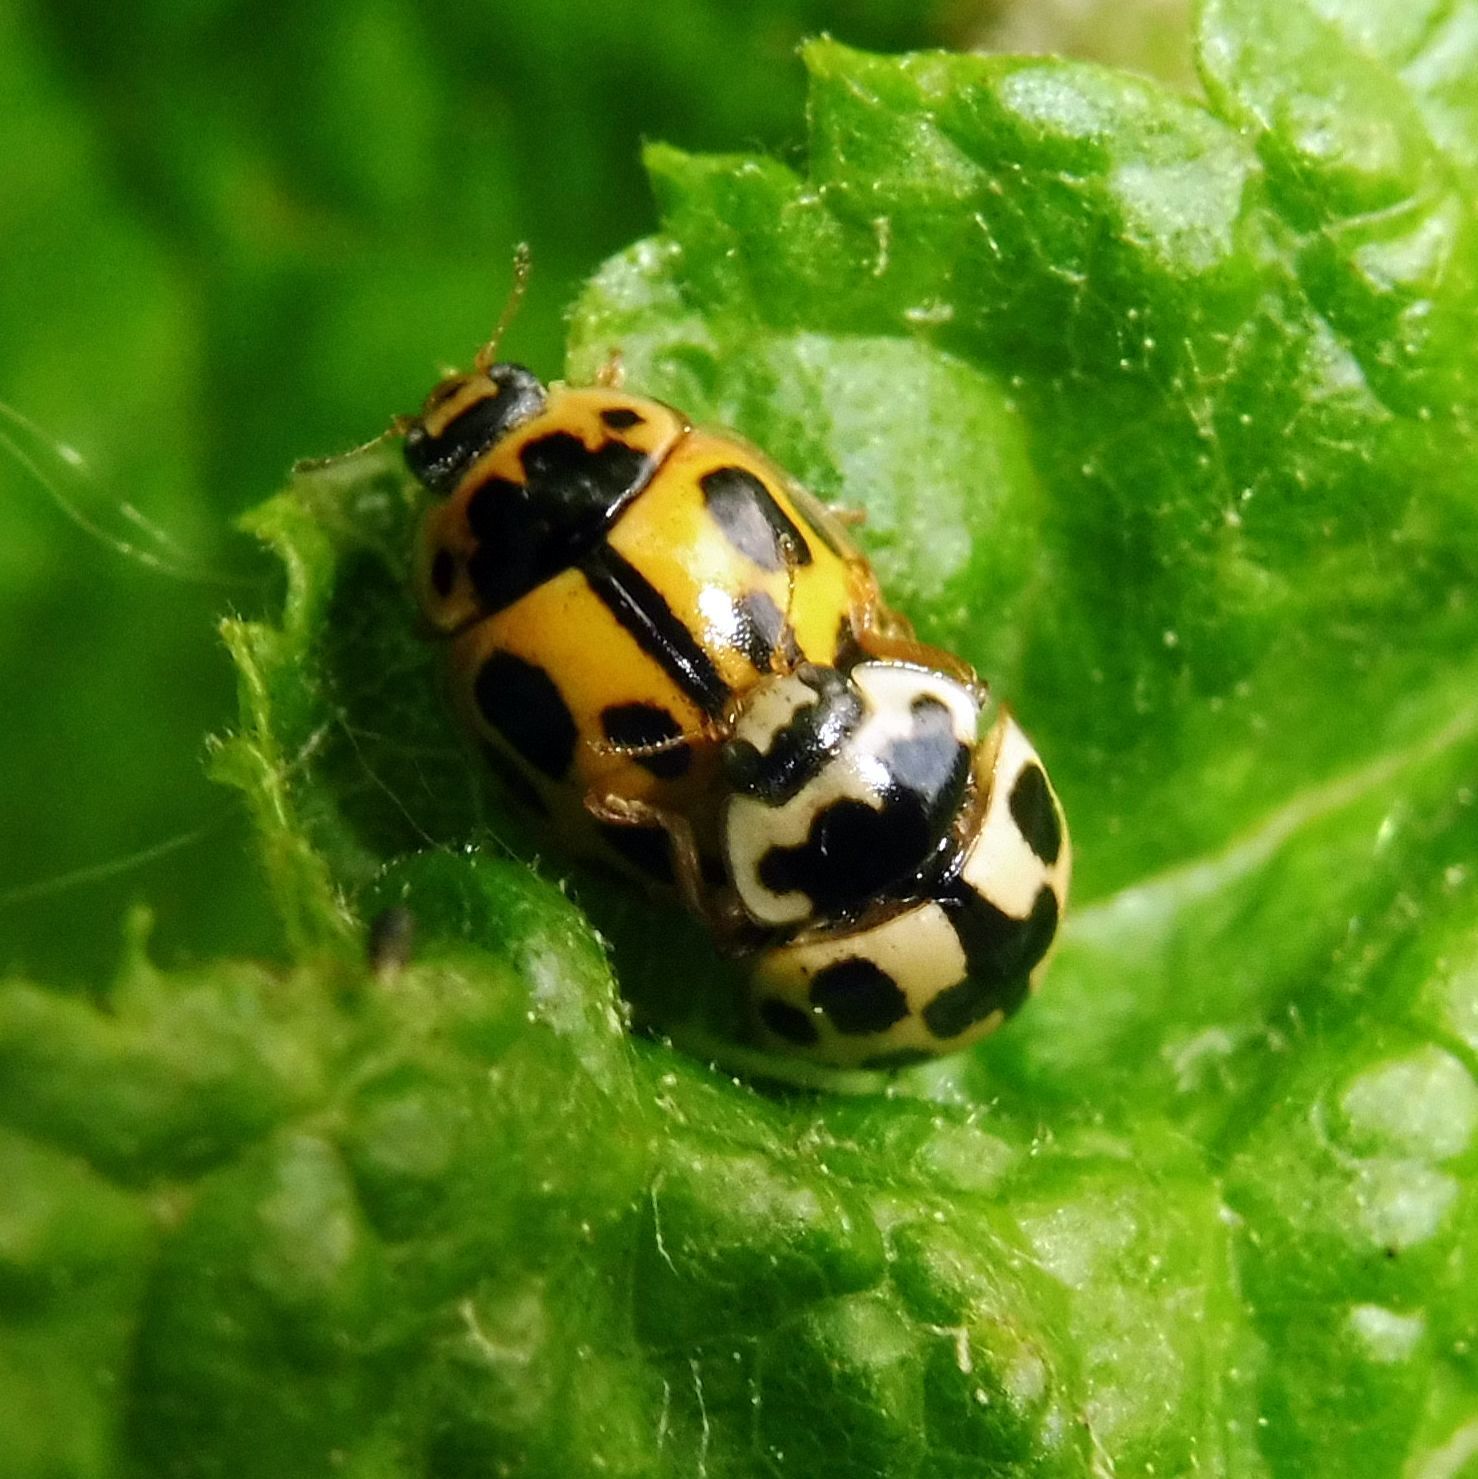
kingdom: Animalia
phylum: Arthropoda
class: Insecta
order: Coleoptera
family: Coccinellidae
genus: Propylaea
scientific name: Propylaea quatuordecimpunctata
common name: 14-spotted ladybird beetle
